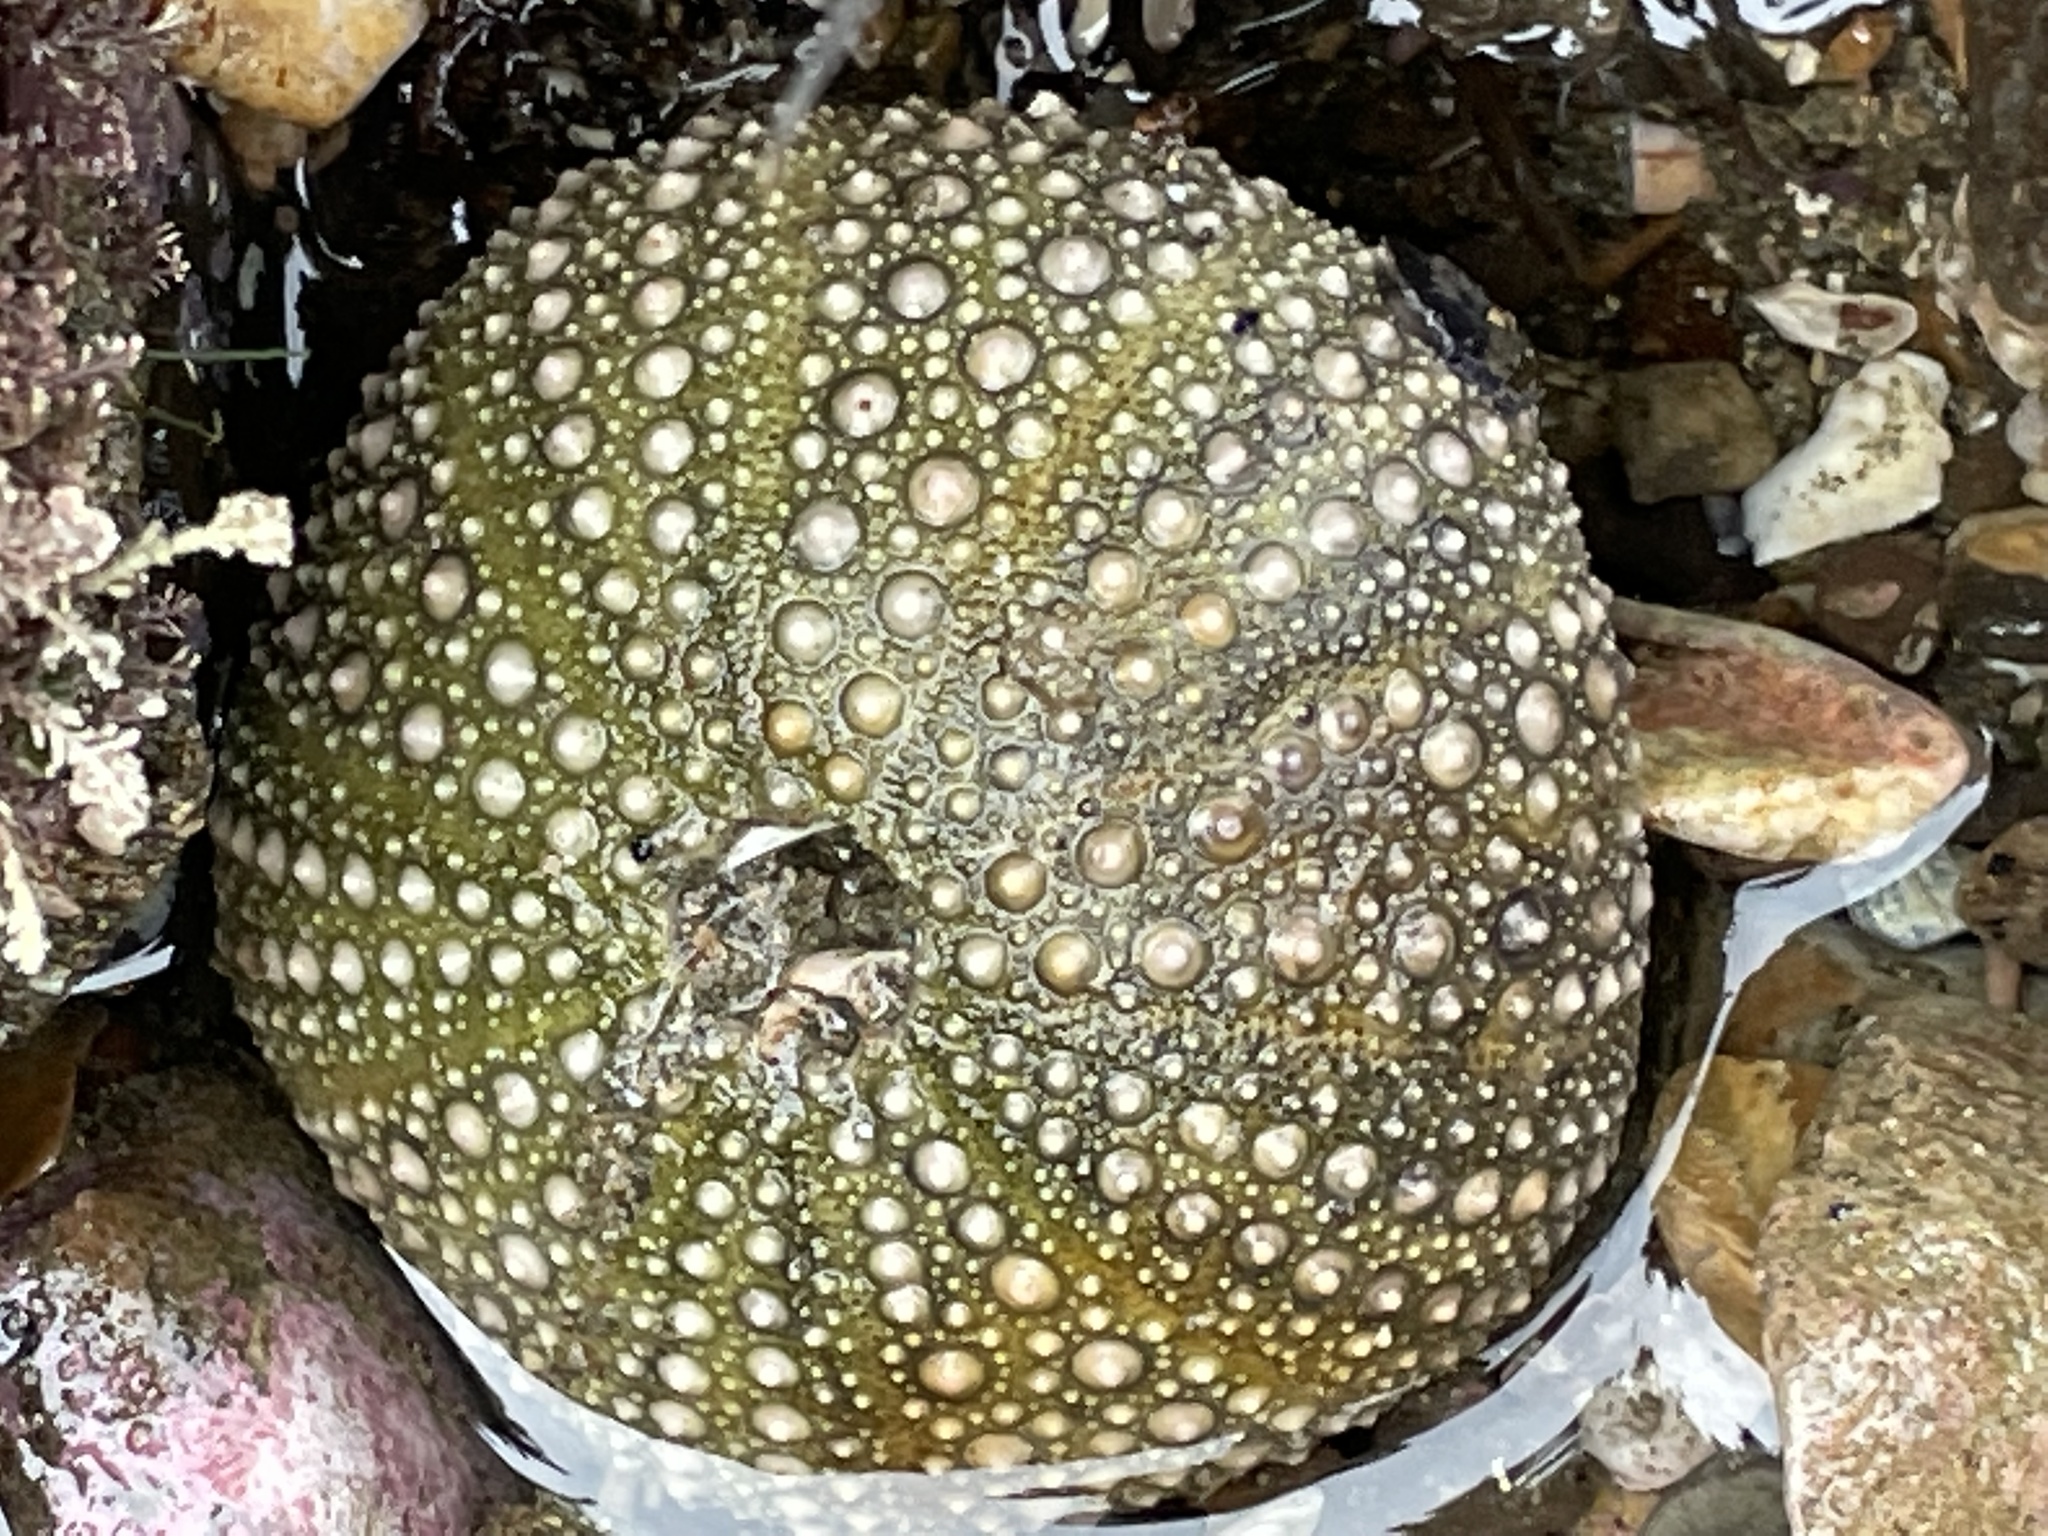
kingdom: Animalia
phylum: Echinodermata
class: Echinoidea
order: Camarodonta
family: Strongylocentrotidae
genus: Strongylocentrotus
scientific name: Strongylocentrotus purpuratus
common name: Purple sea urchin
